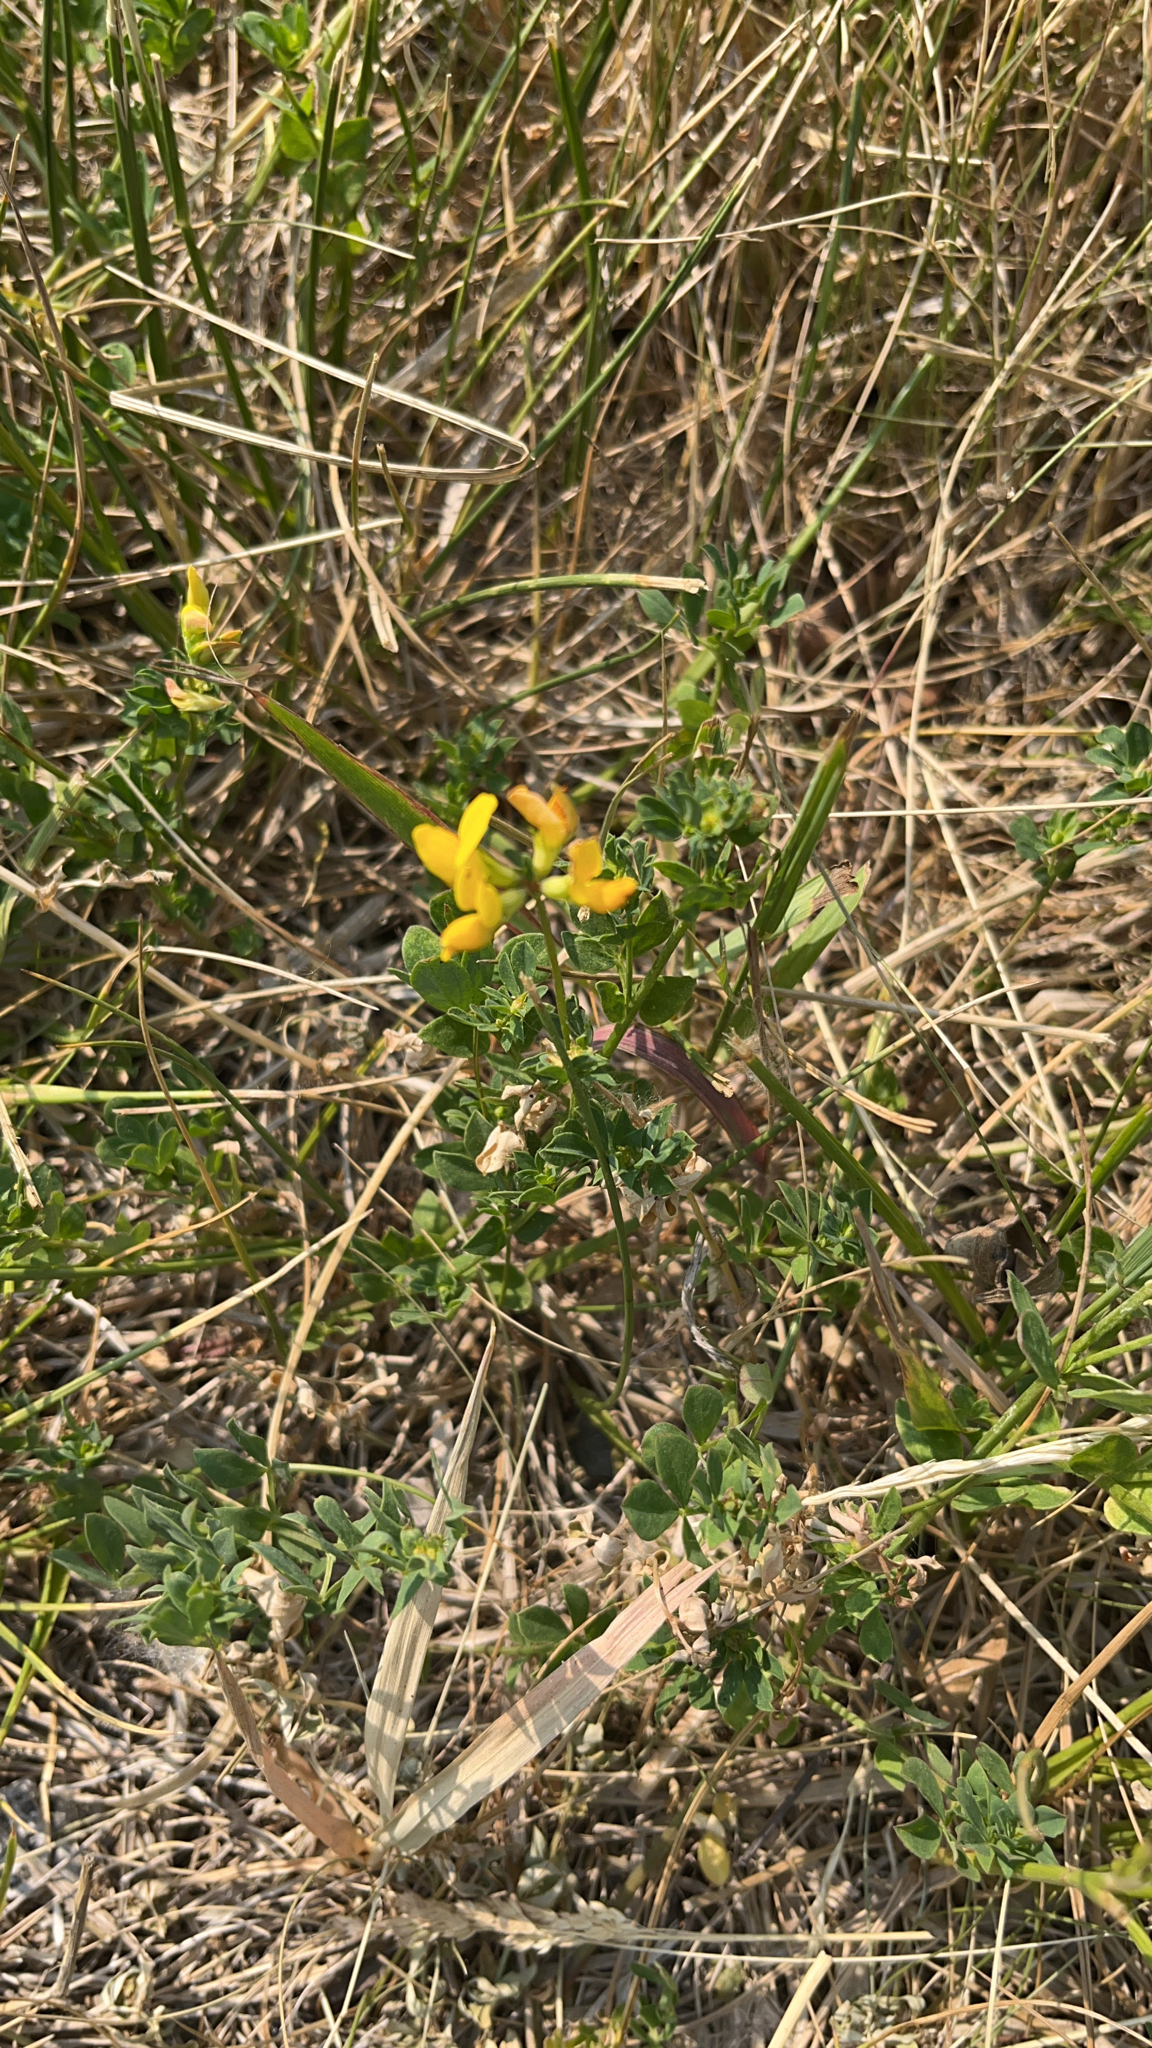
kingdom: Plantae
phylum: Tracheophyta
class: Magnoliopsida
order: Fabales
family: Fabaceae
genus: Lotus
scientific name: Lotus corniculatus
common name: Common bird's-foot-trefoil
